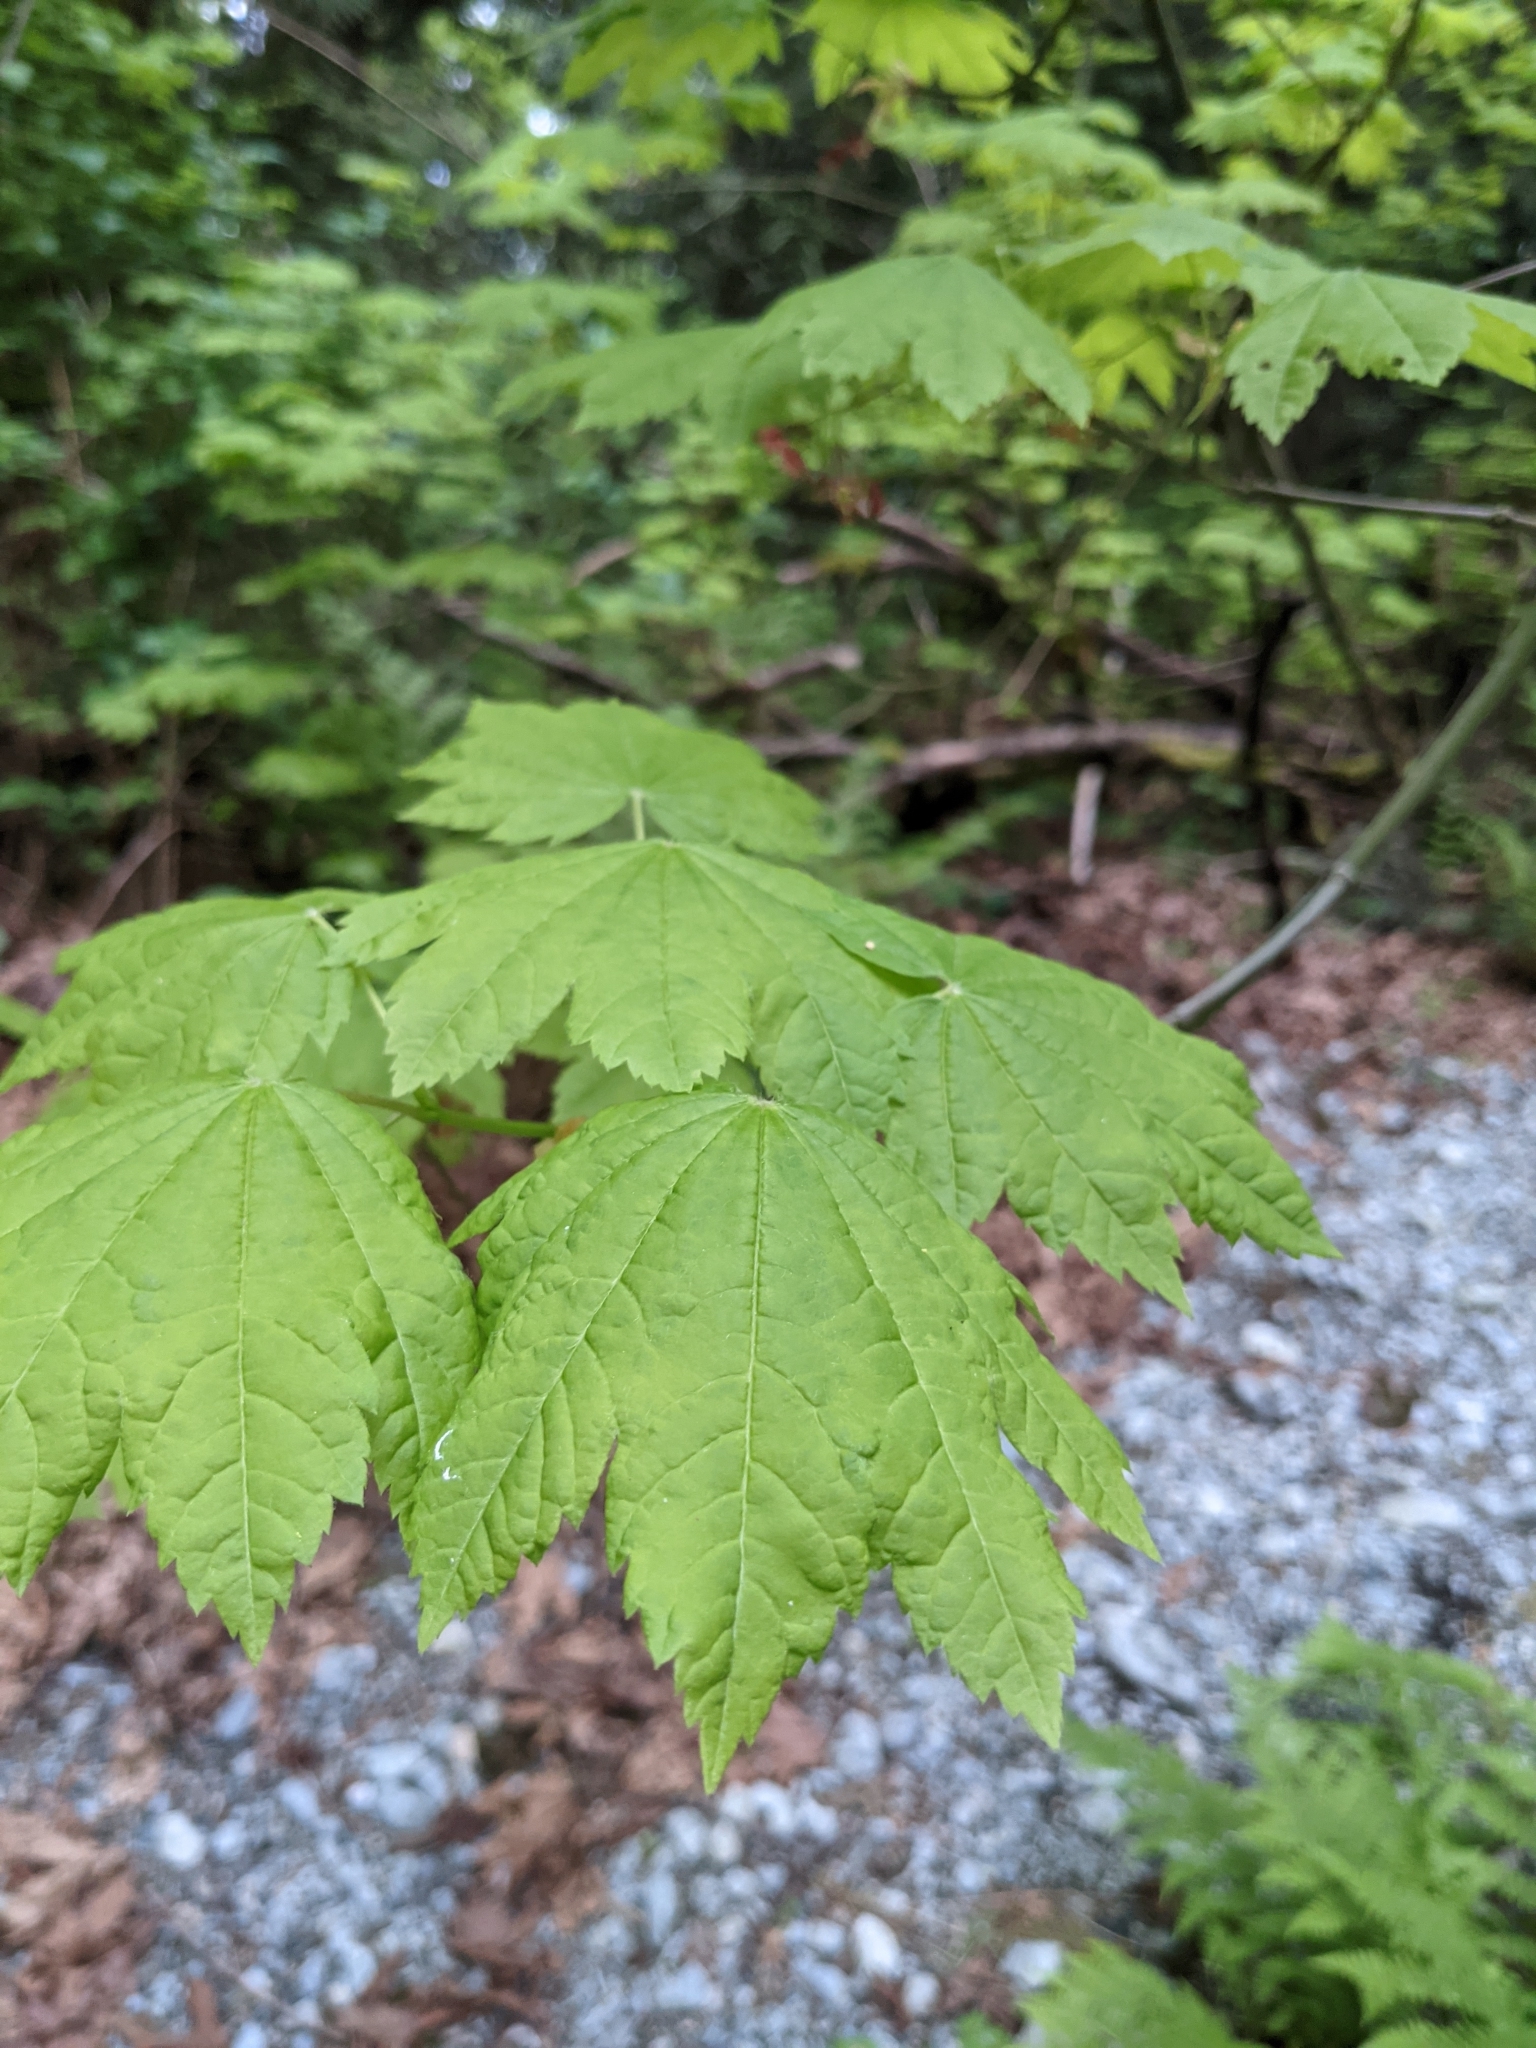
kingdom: Plantae
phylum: Tracheophyta
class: Magnoliopsida
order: Sapindales
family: Sapindaceae
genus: Acer
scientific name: Acer circinatum
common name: Vine maple
